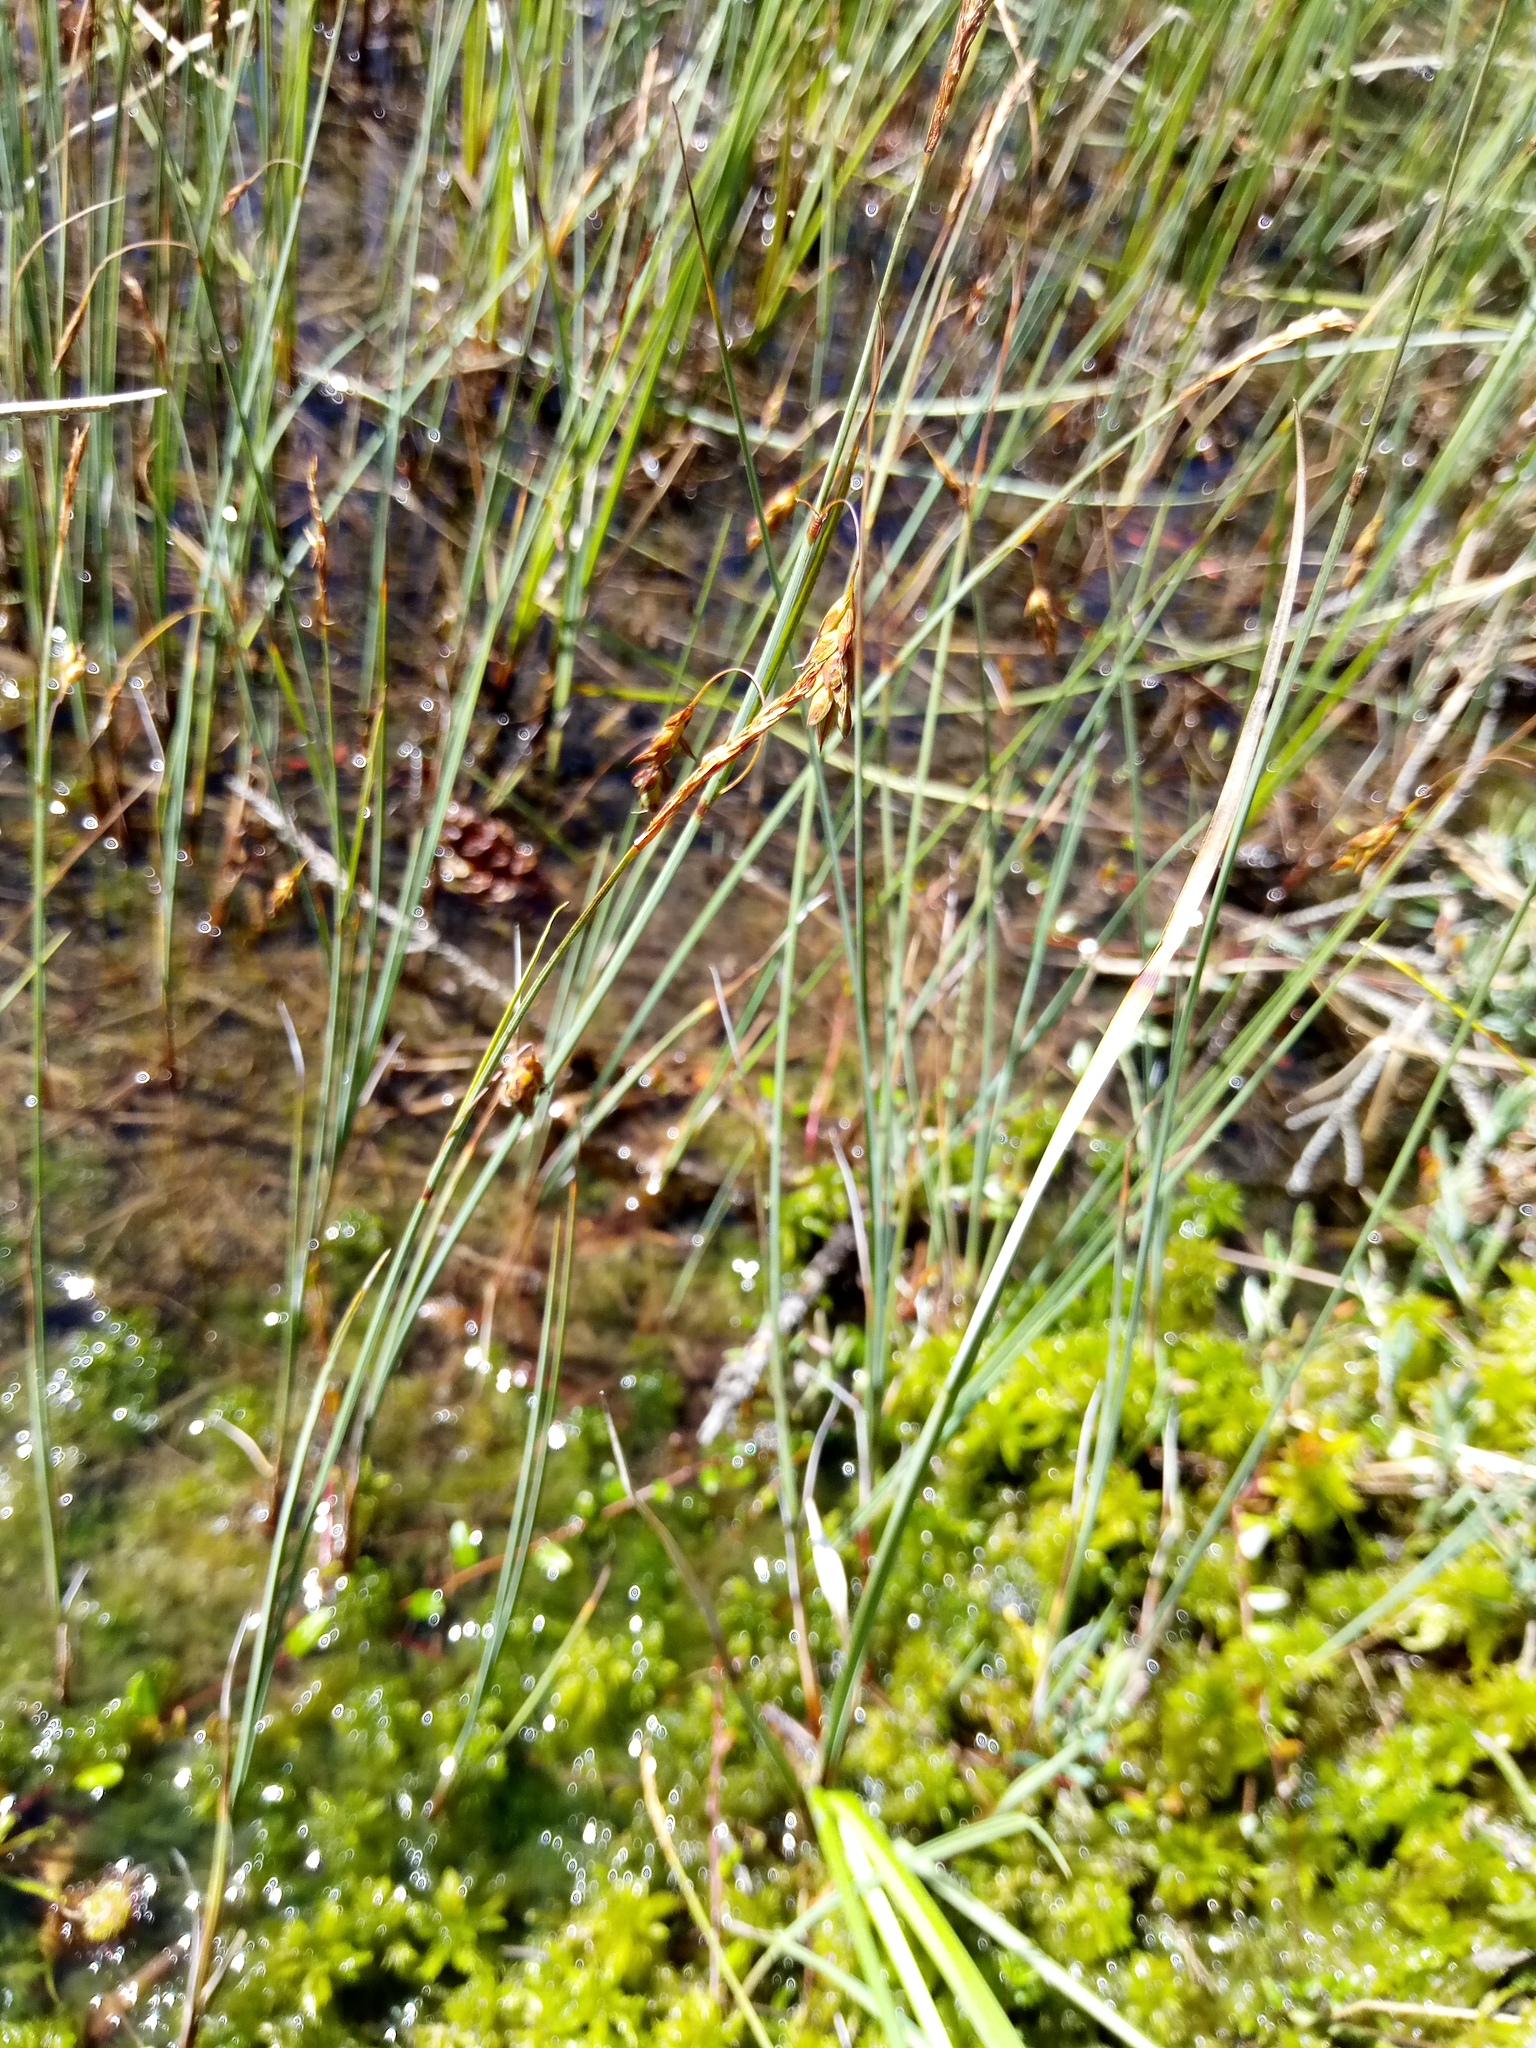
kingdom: Plantae
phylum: Tracheophyta
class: Liliopsida
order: Poales
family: Cyperaceae
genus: Carex
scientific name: Carex limosa
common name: Bog sedge
